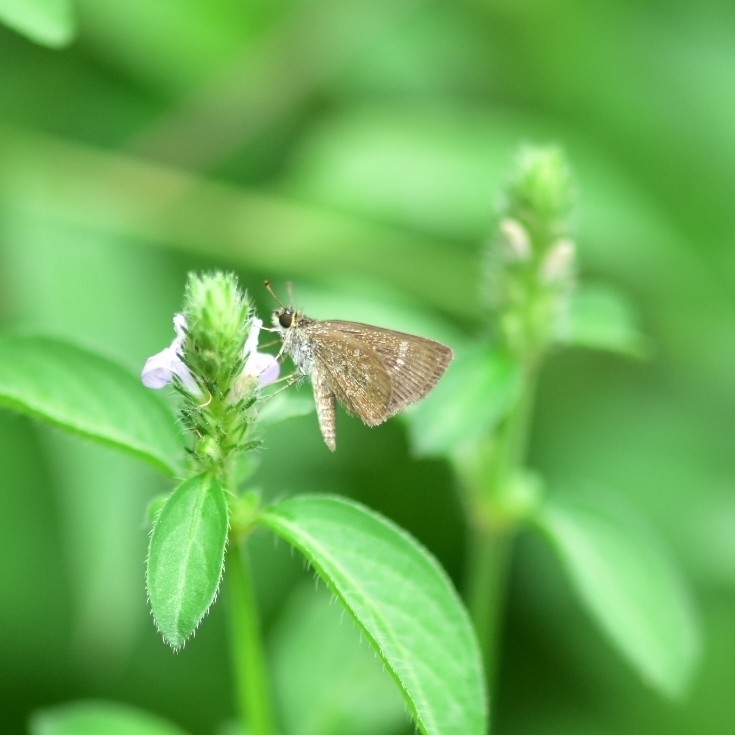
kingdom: Animalia
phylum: Arthropoda
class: Insecta
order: Lepidoptera
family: Hesperiidae
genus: Aeromachus
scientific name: Aeromachus pygmaeus
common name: Pygmy scrub hopper
